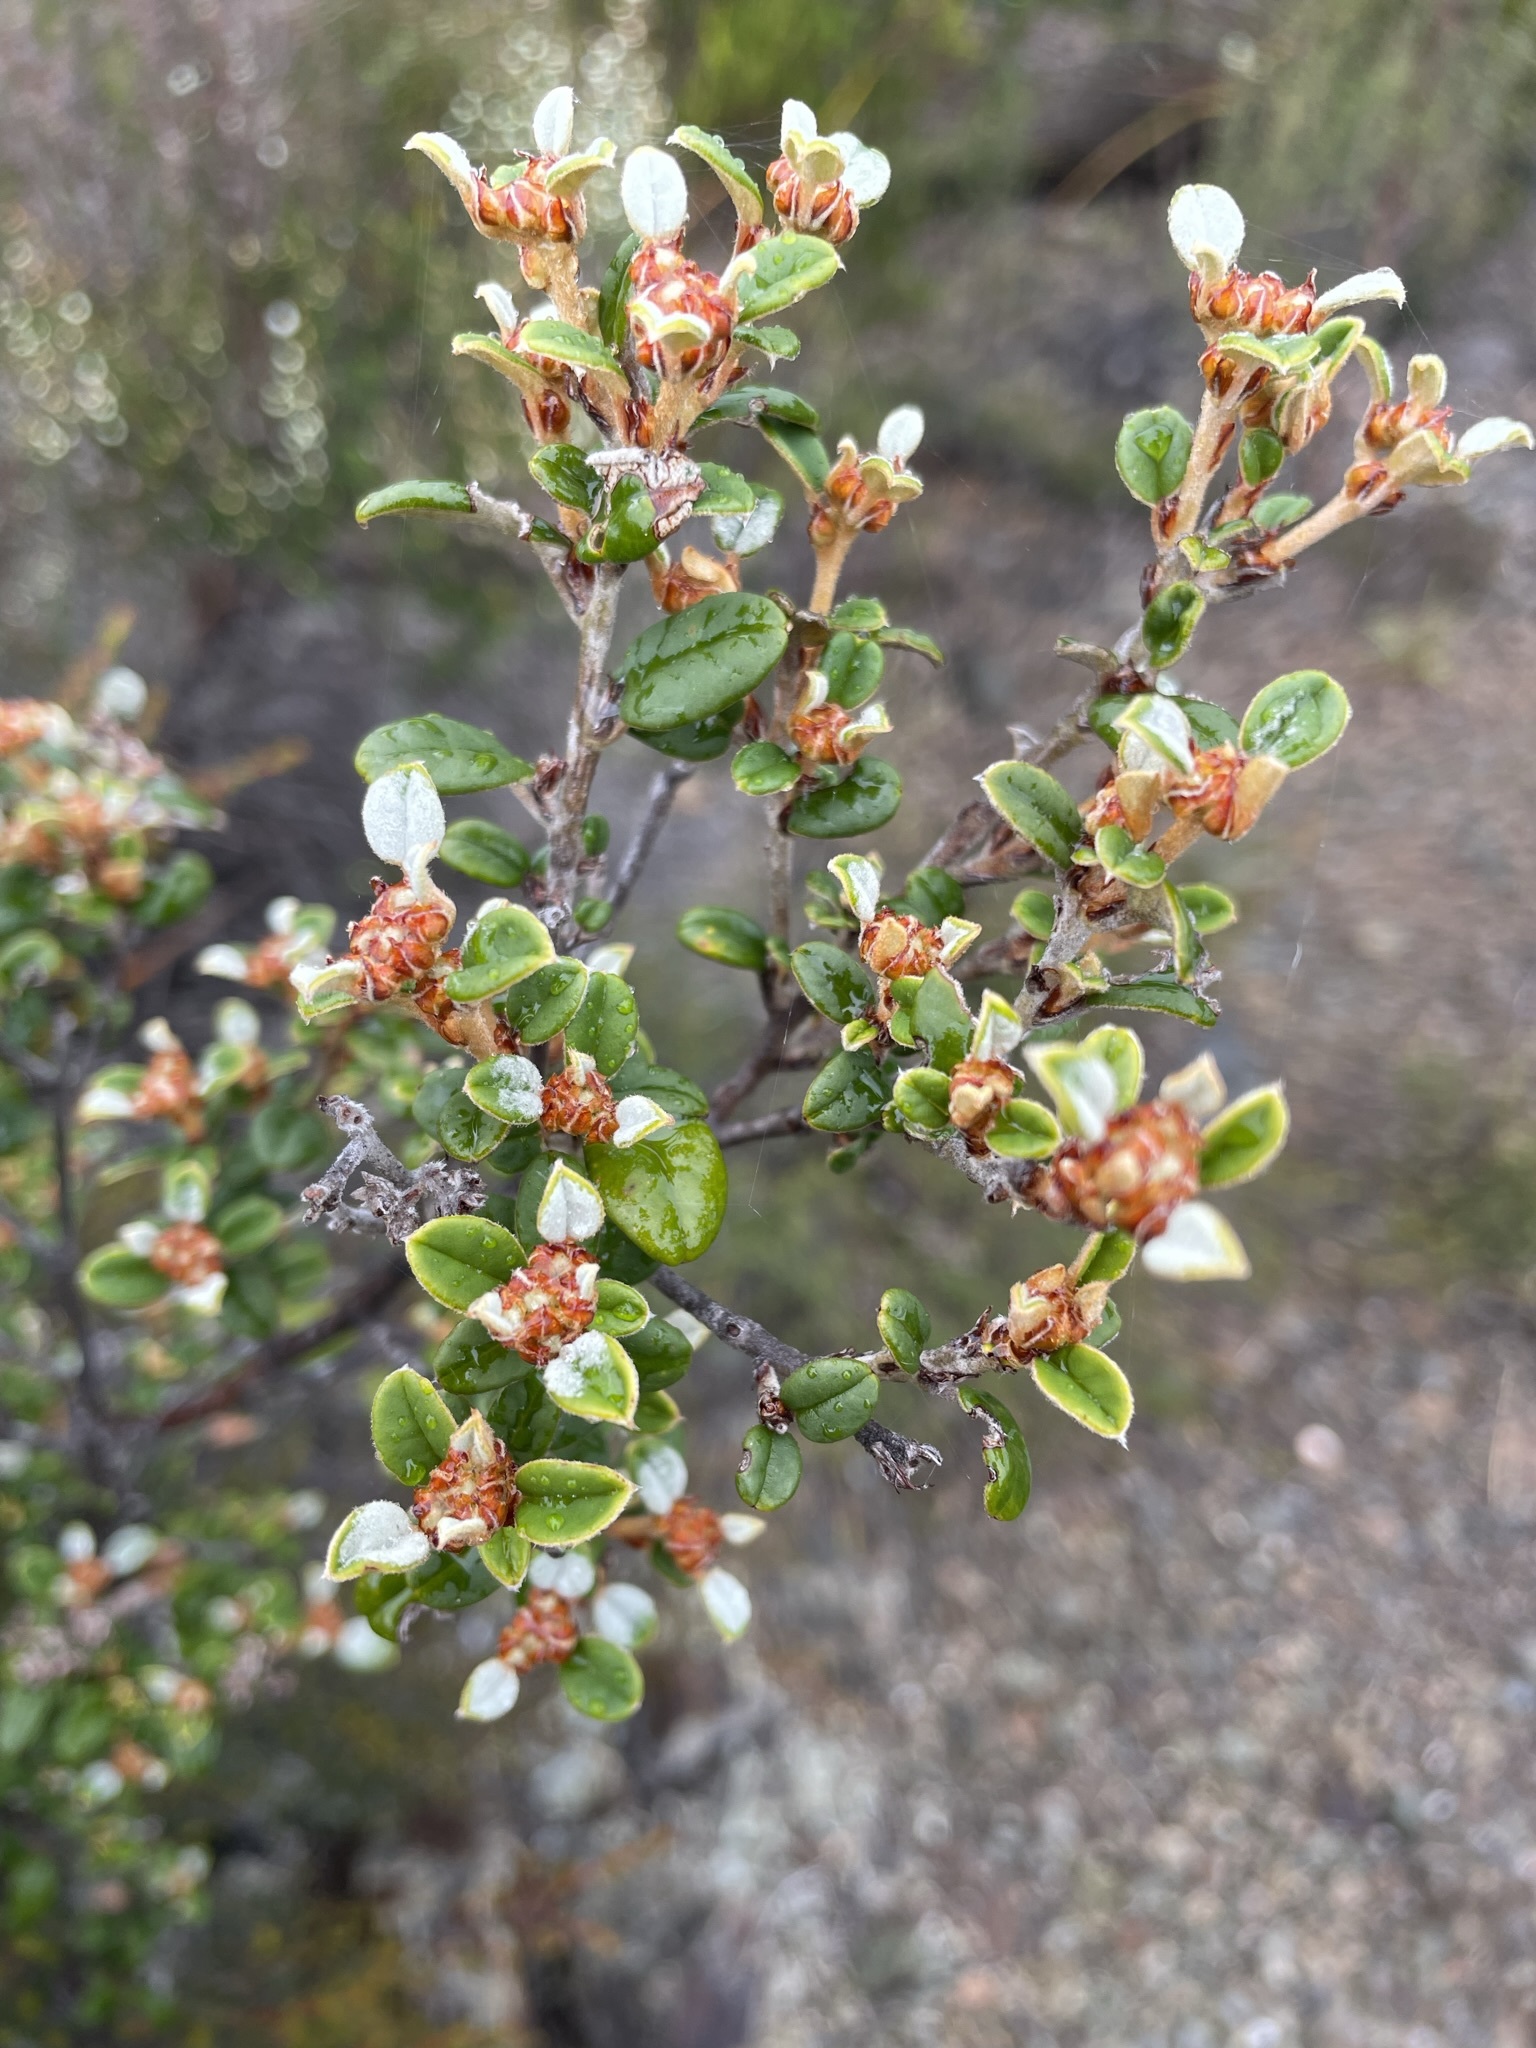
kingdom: Plantae
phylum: Tracheophyta
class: Magnoliopsida
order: Rosales
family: Rhamnaceae
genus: Spyridium
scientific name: Spyridium gunnii
